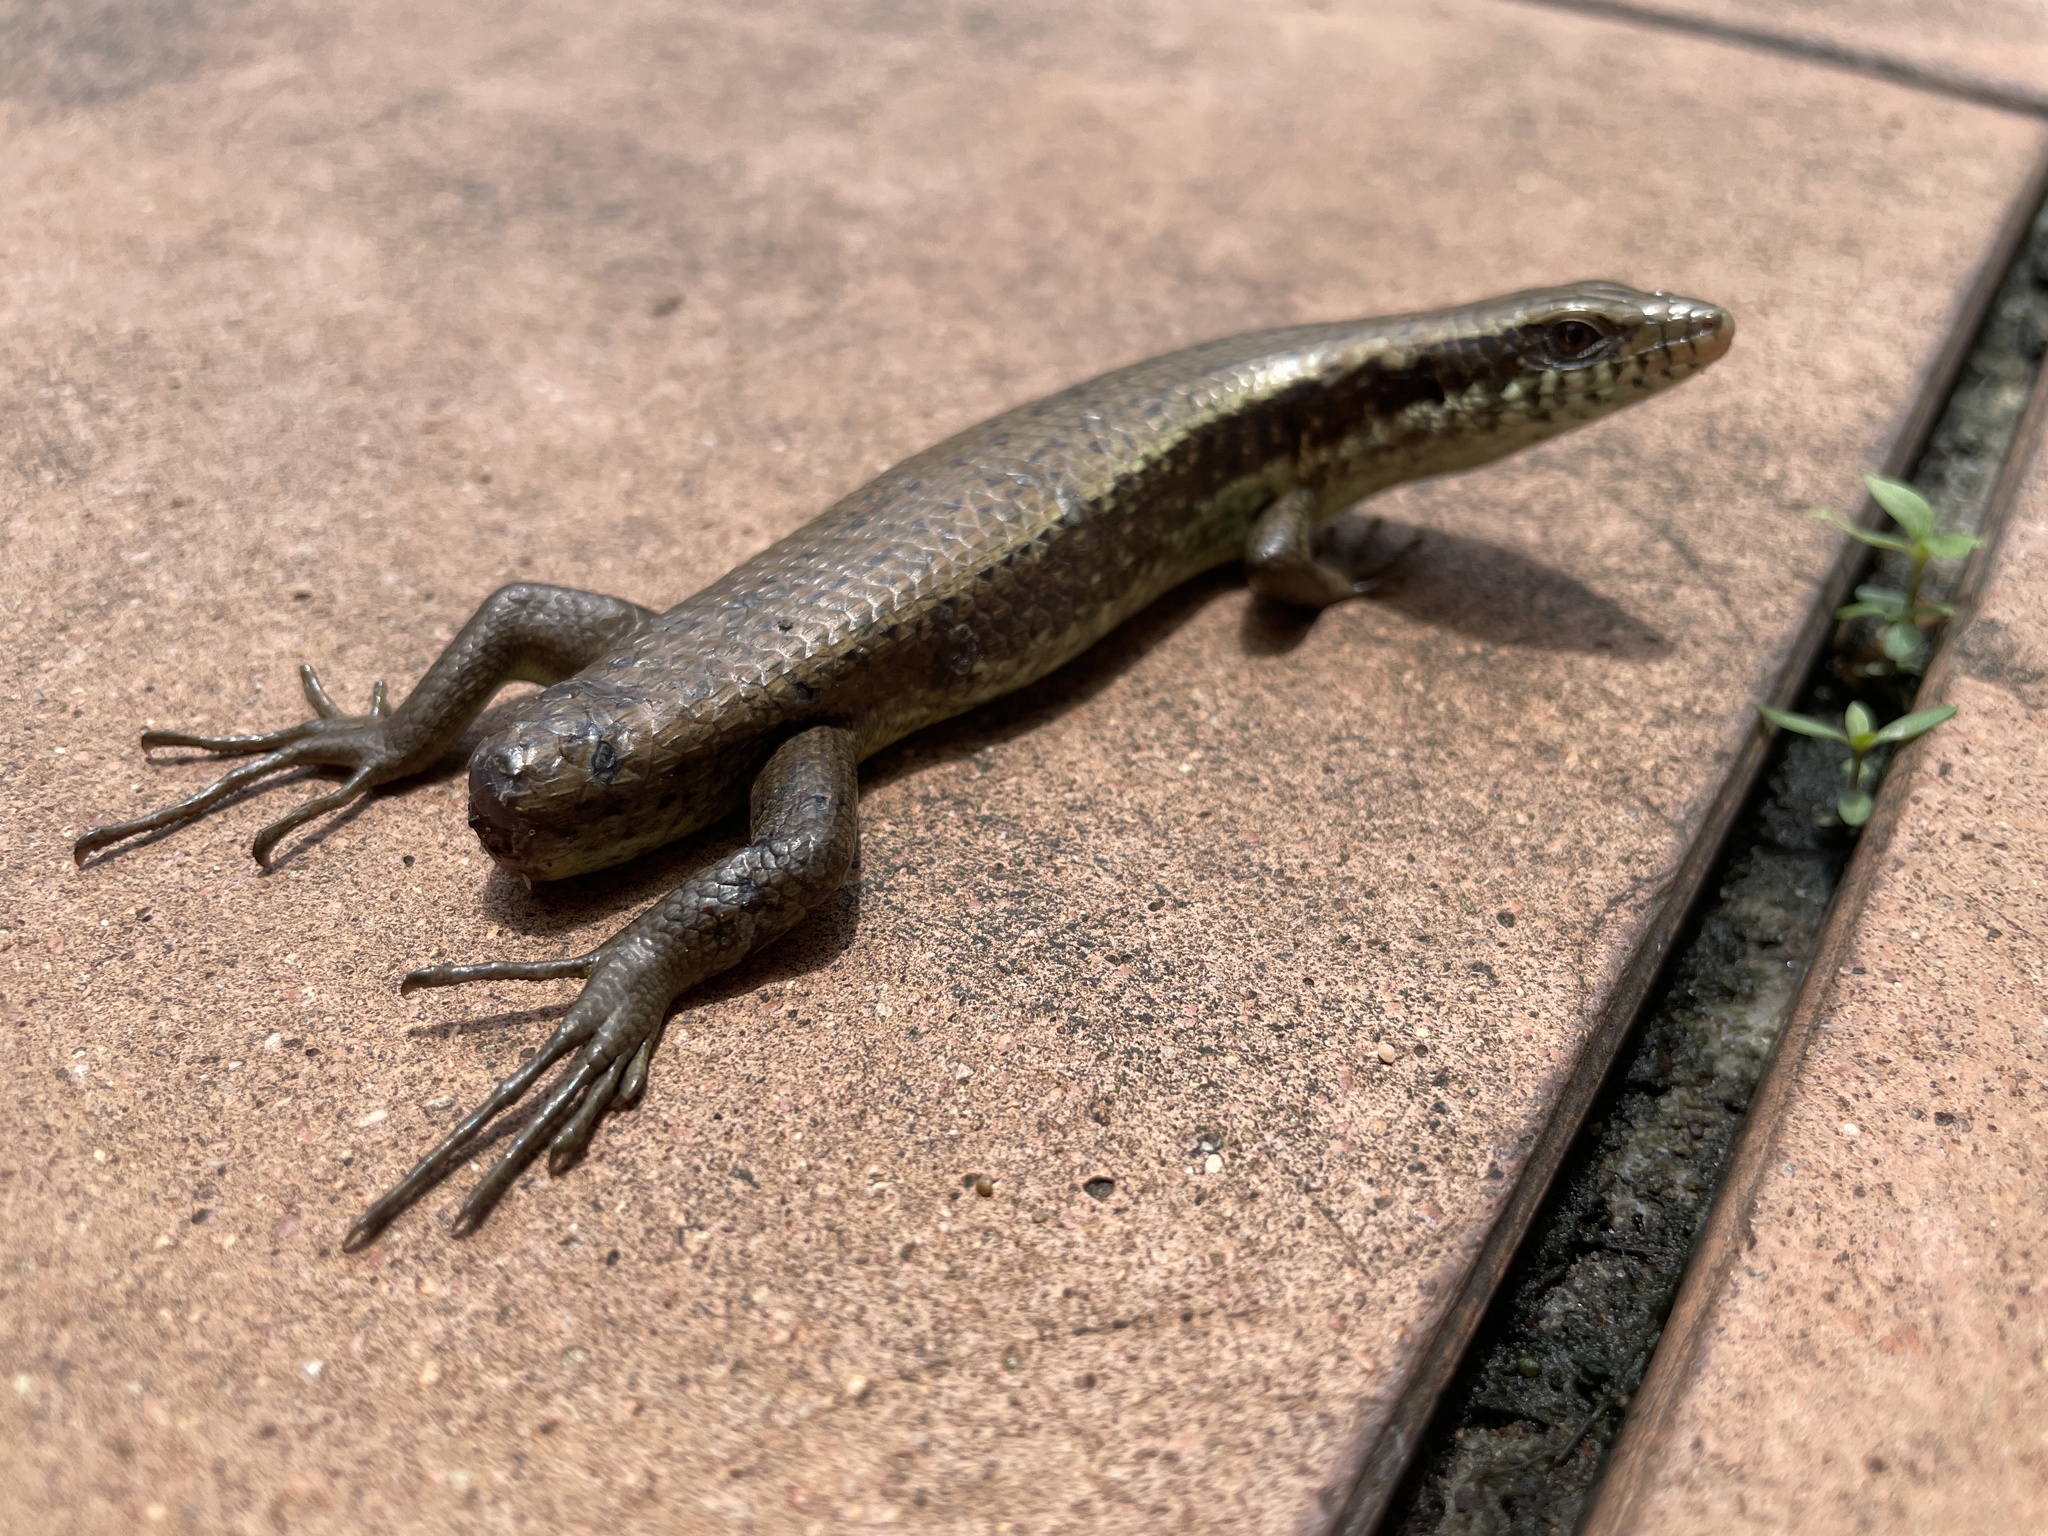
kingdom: Animalia
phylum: Chordata
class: Squamata
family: Scincidae
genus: Eutropis
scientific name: Eutropis longicaudata
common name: Long-tailed sun skink
